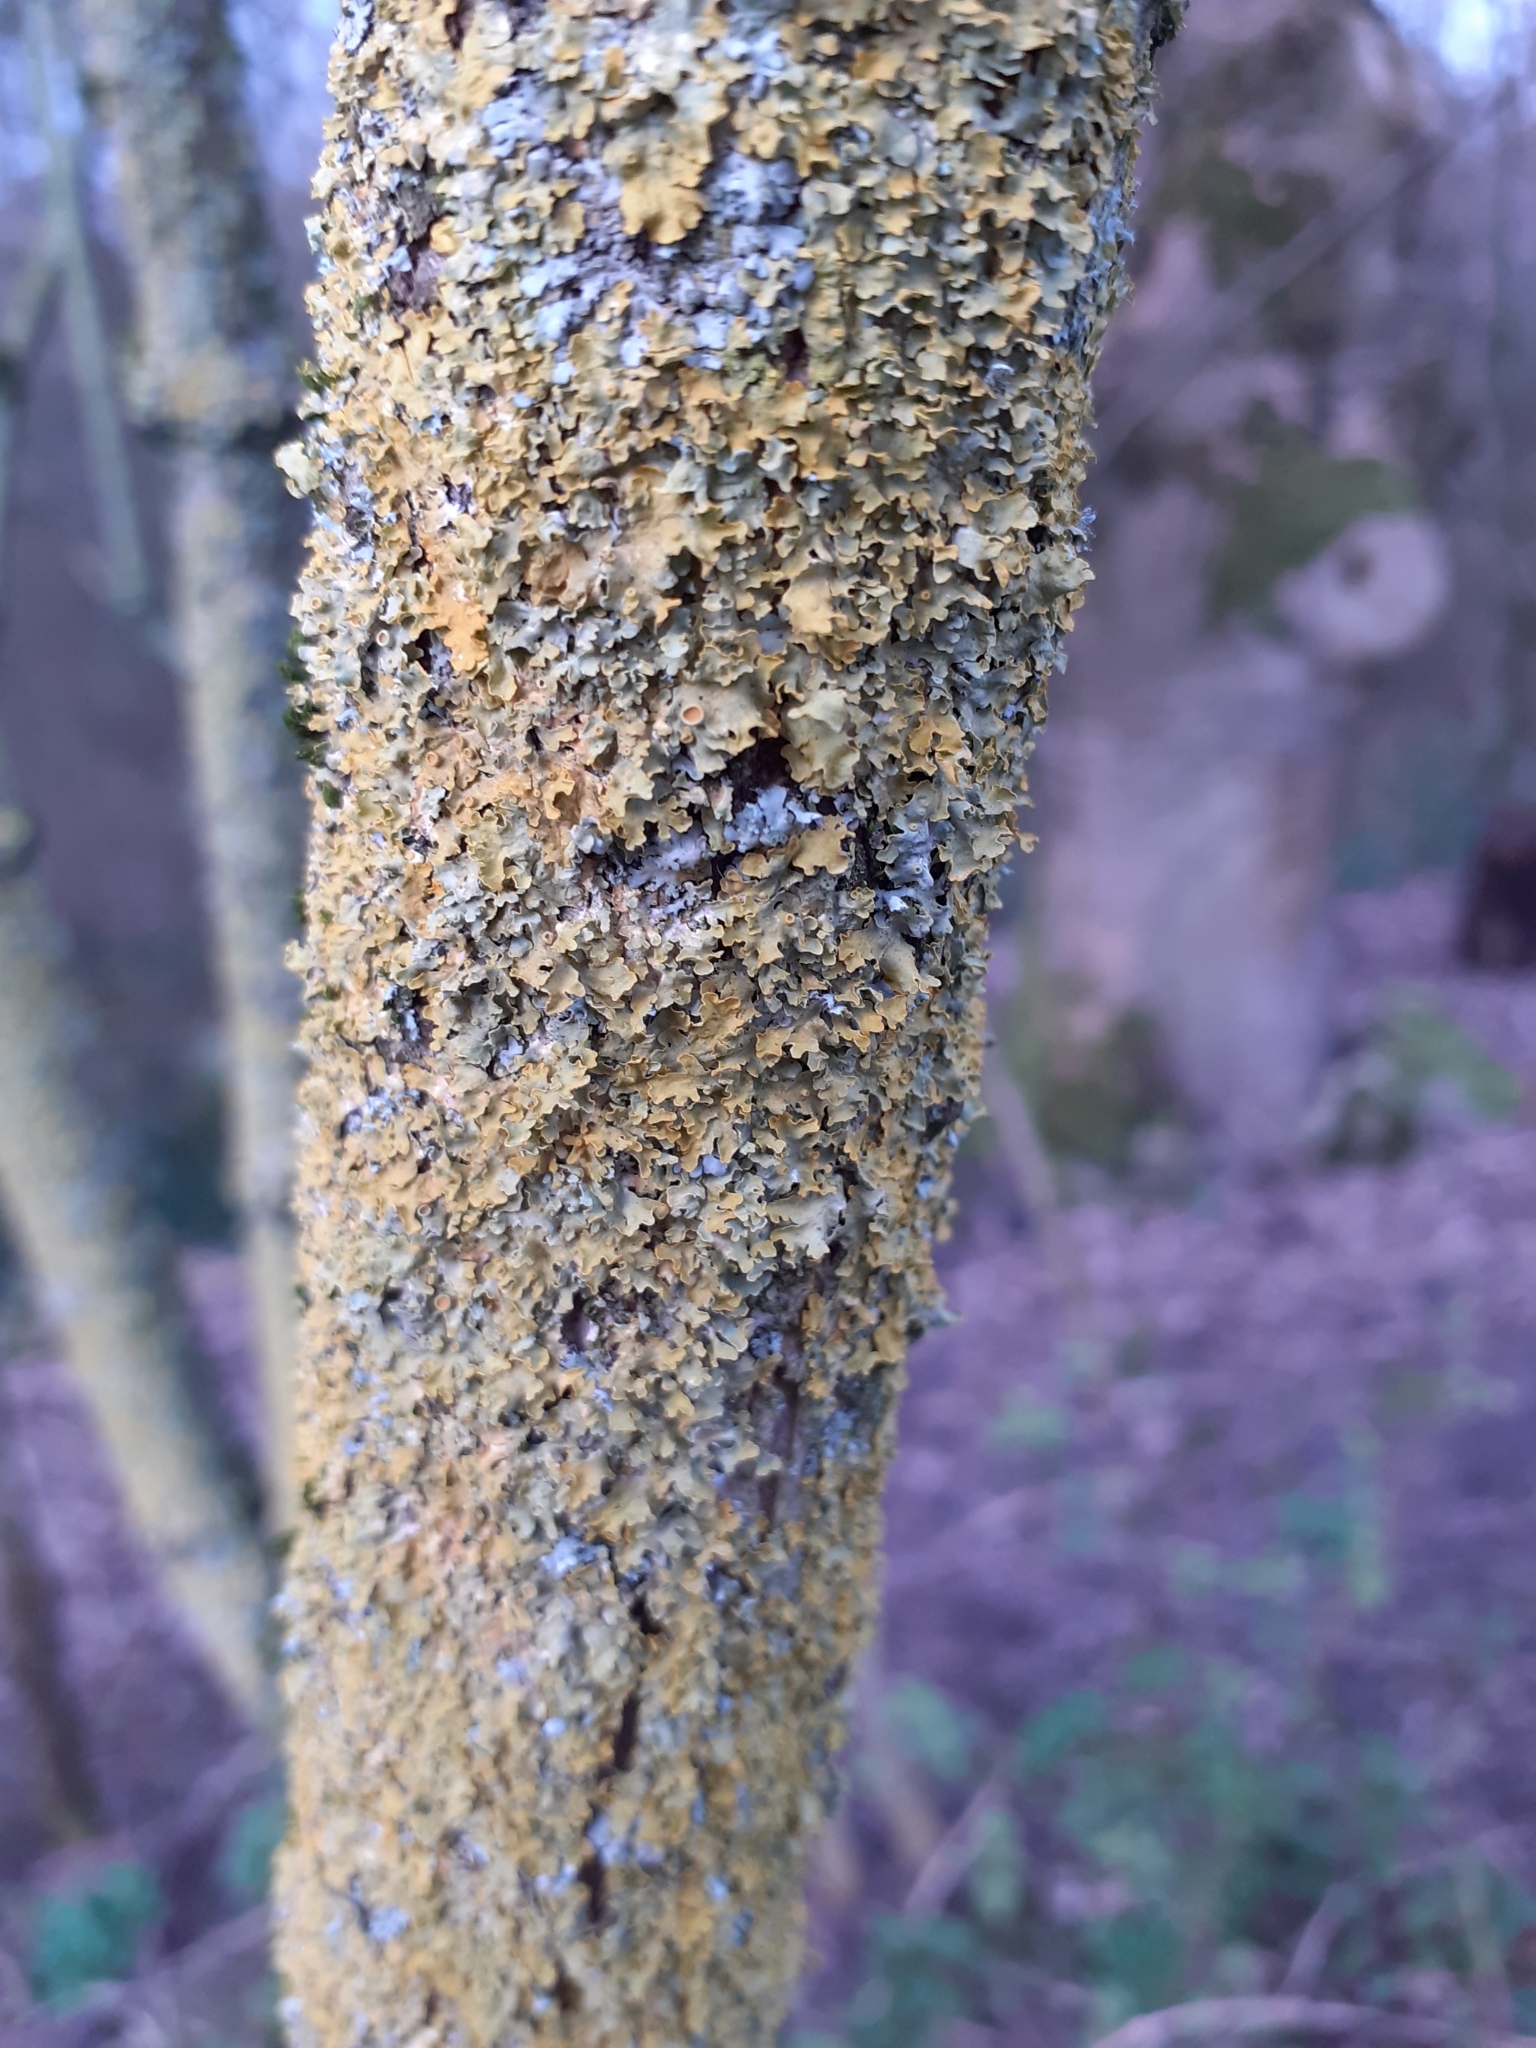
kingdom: Fungi
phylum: Ascomycota
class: Lecanoromycetes
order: Teloschistales
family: Teloschistaceae
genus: Xanthoria
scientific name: Xanthoria parietina
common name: Common orange lichen
